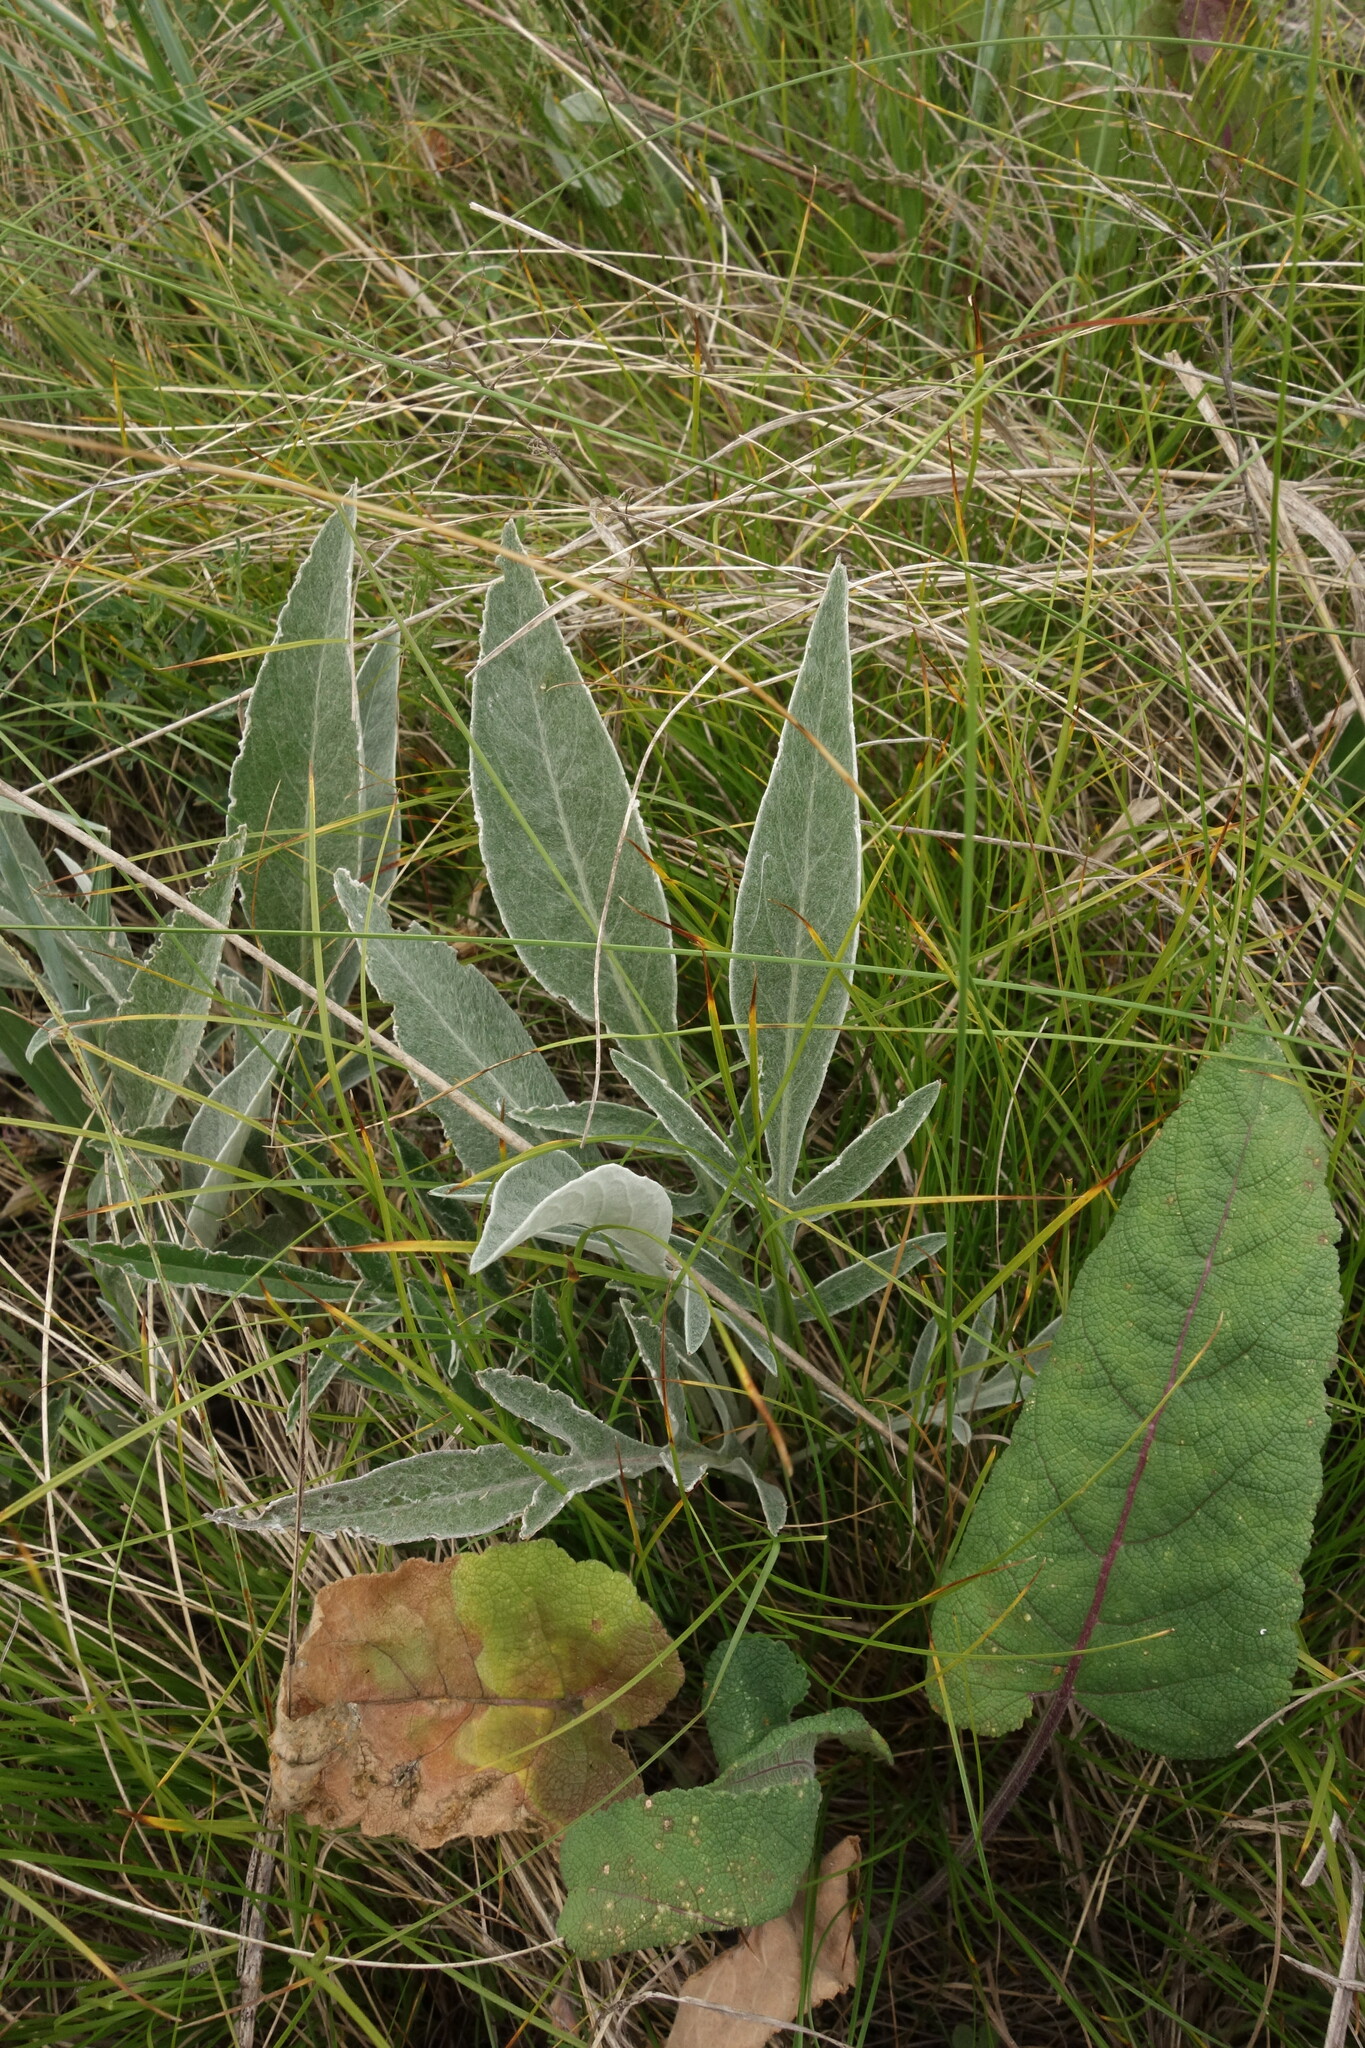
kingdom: Plantae
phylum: Tracheophyta
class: Magnoliopsida
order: Asterales
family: Asteraceae
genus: Psephellus
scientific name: Psephellus sumensis
